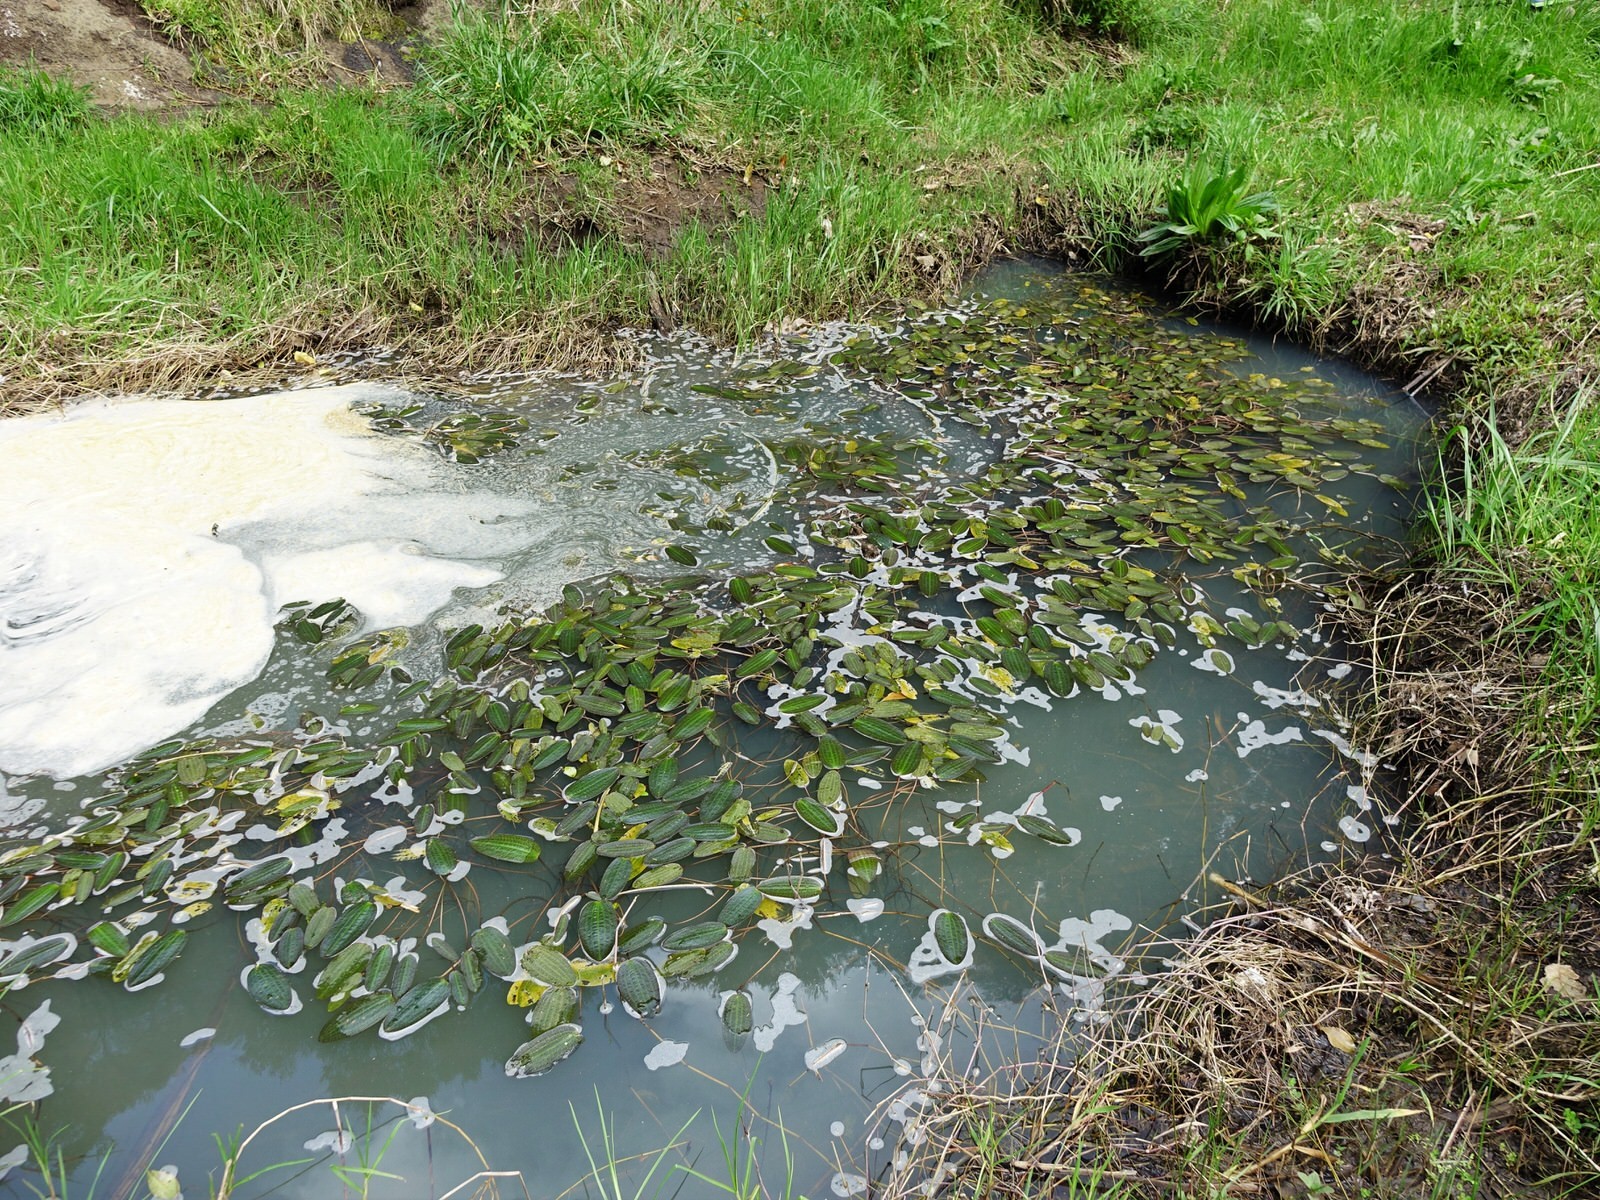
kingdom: Plantae
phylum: Tracheophyta
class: Liliopsida
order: Alismatales
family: Hydrocharitaceae
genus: Ottelia
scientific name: Ottelia ovalifolia
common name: Swamp-lily
